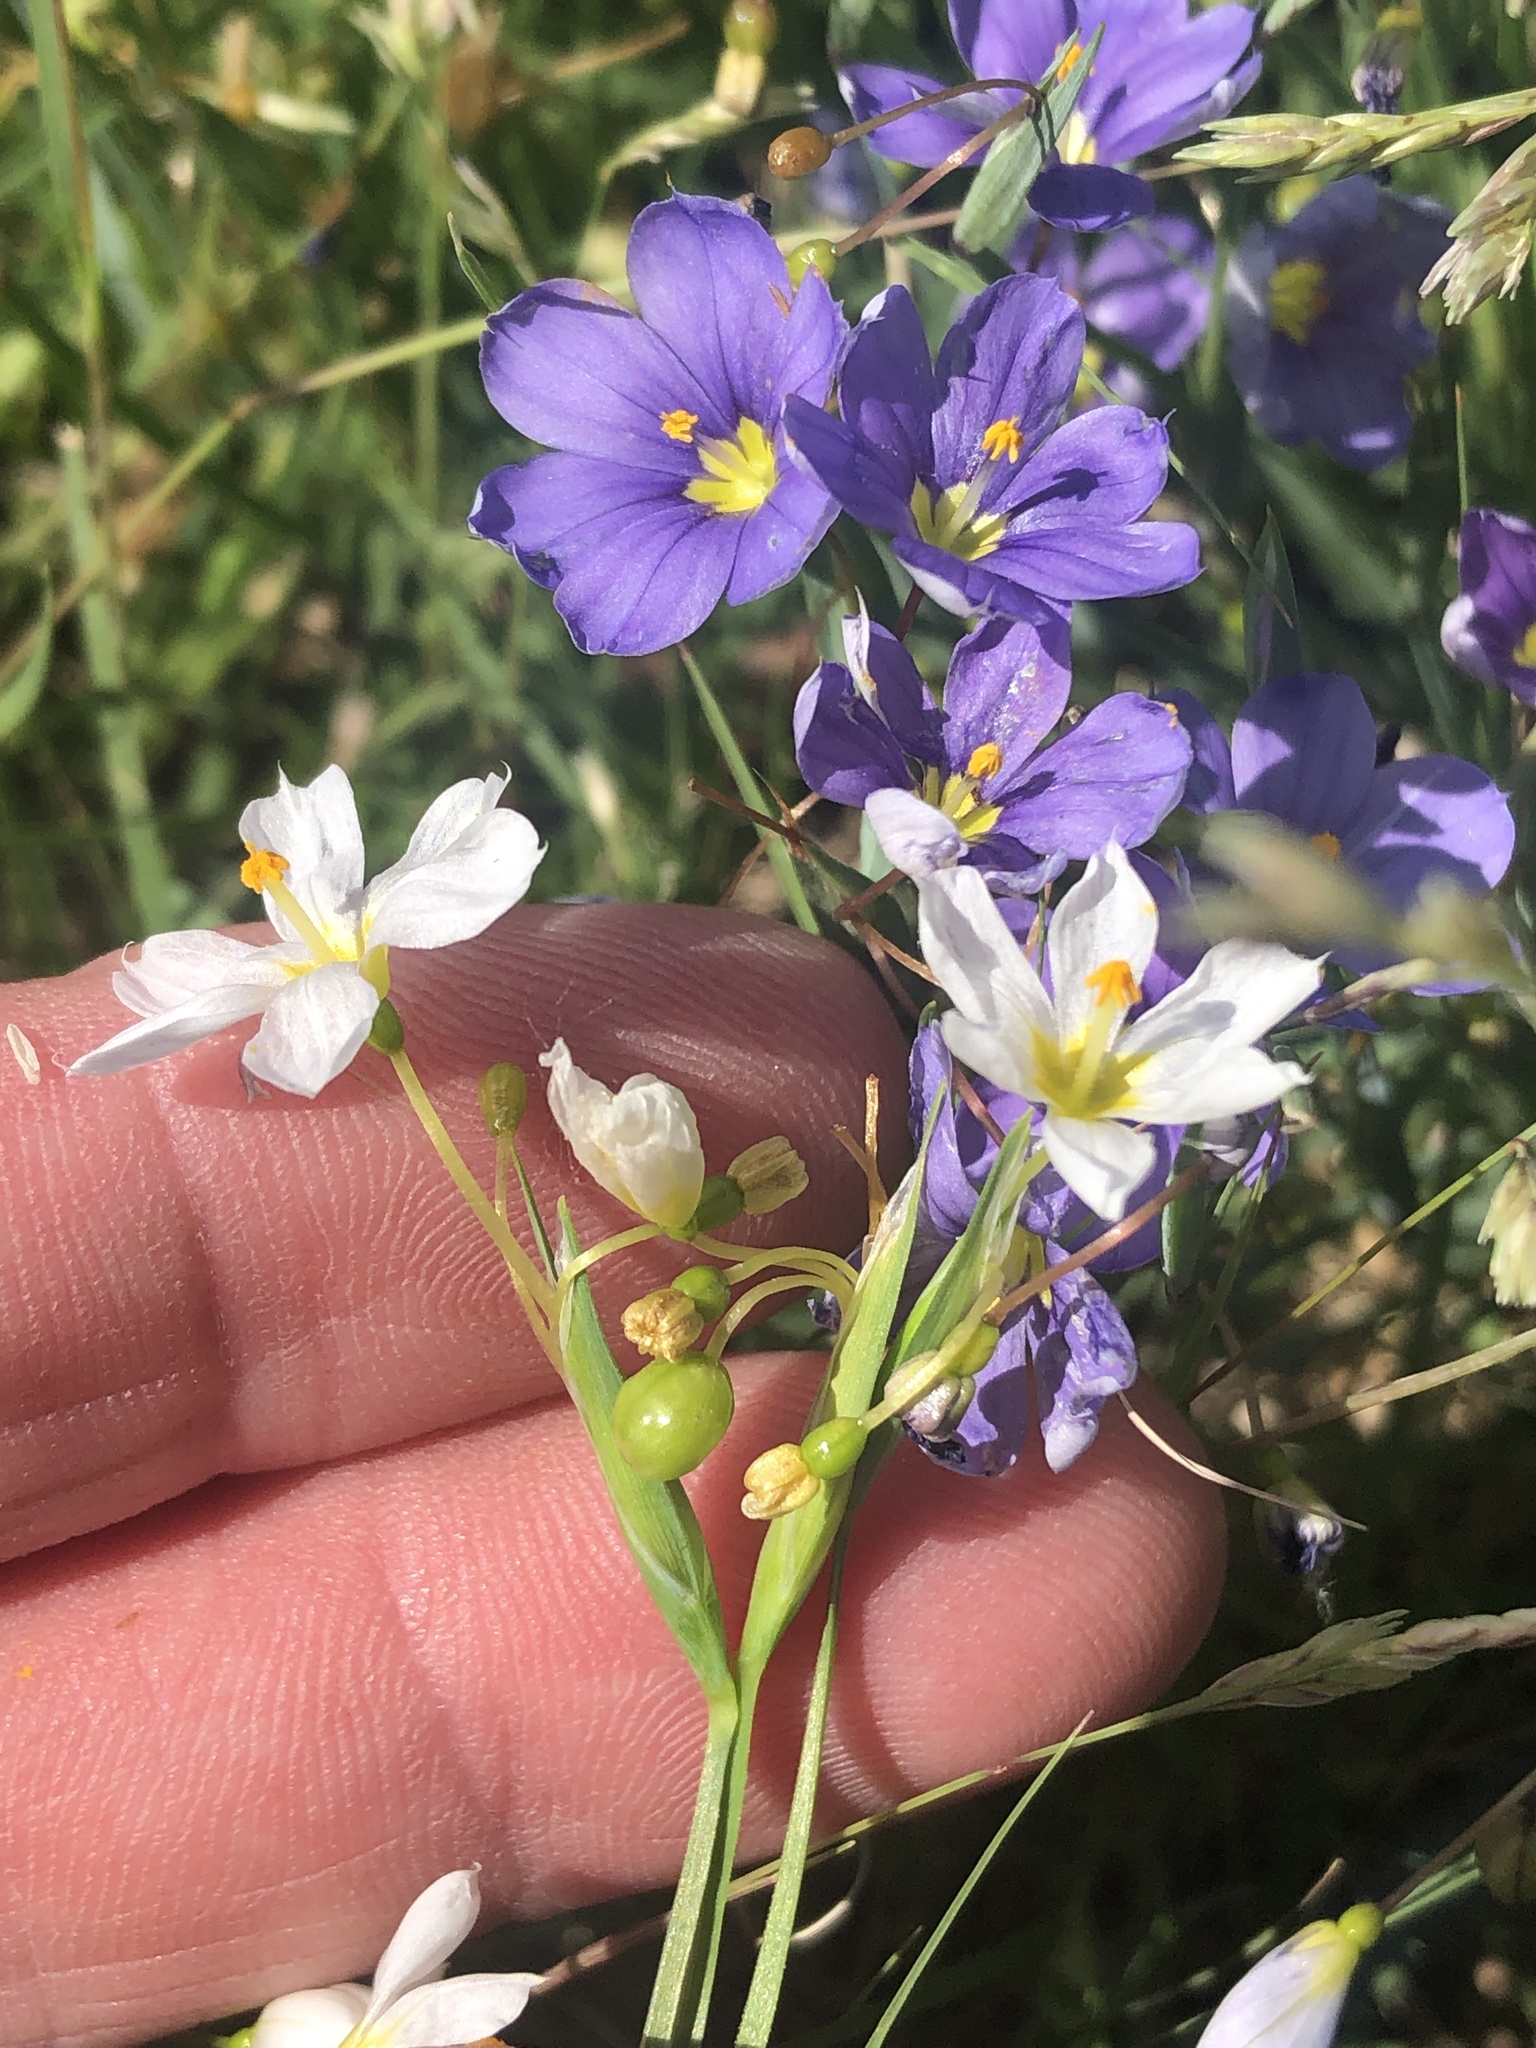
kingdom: Plantae
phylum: Tracheophyta
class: Liliopsida
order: Asparagales
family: Iridaceae
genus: Sisyrinchium
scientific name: Sisyrinchium pruinosum
